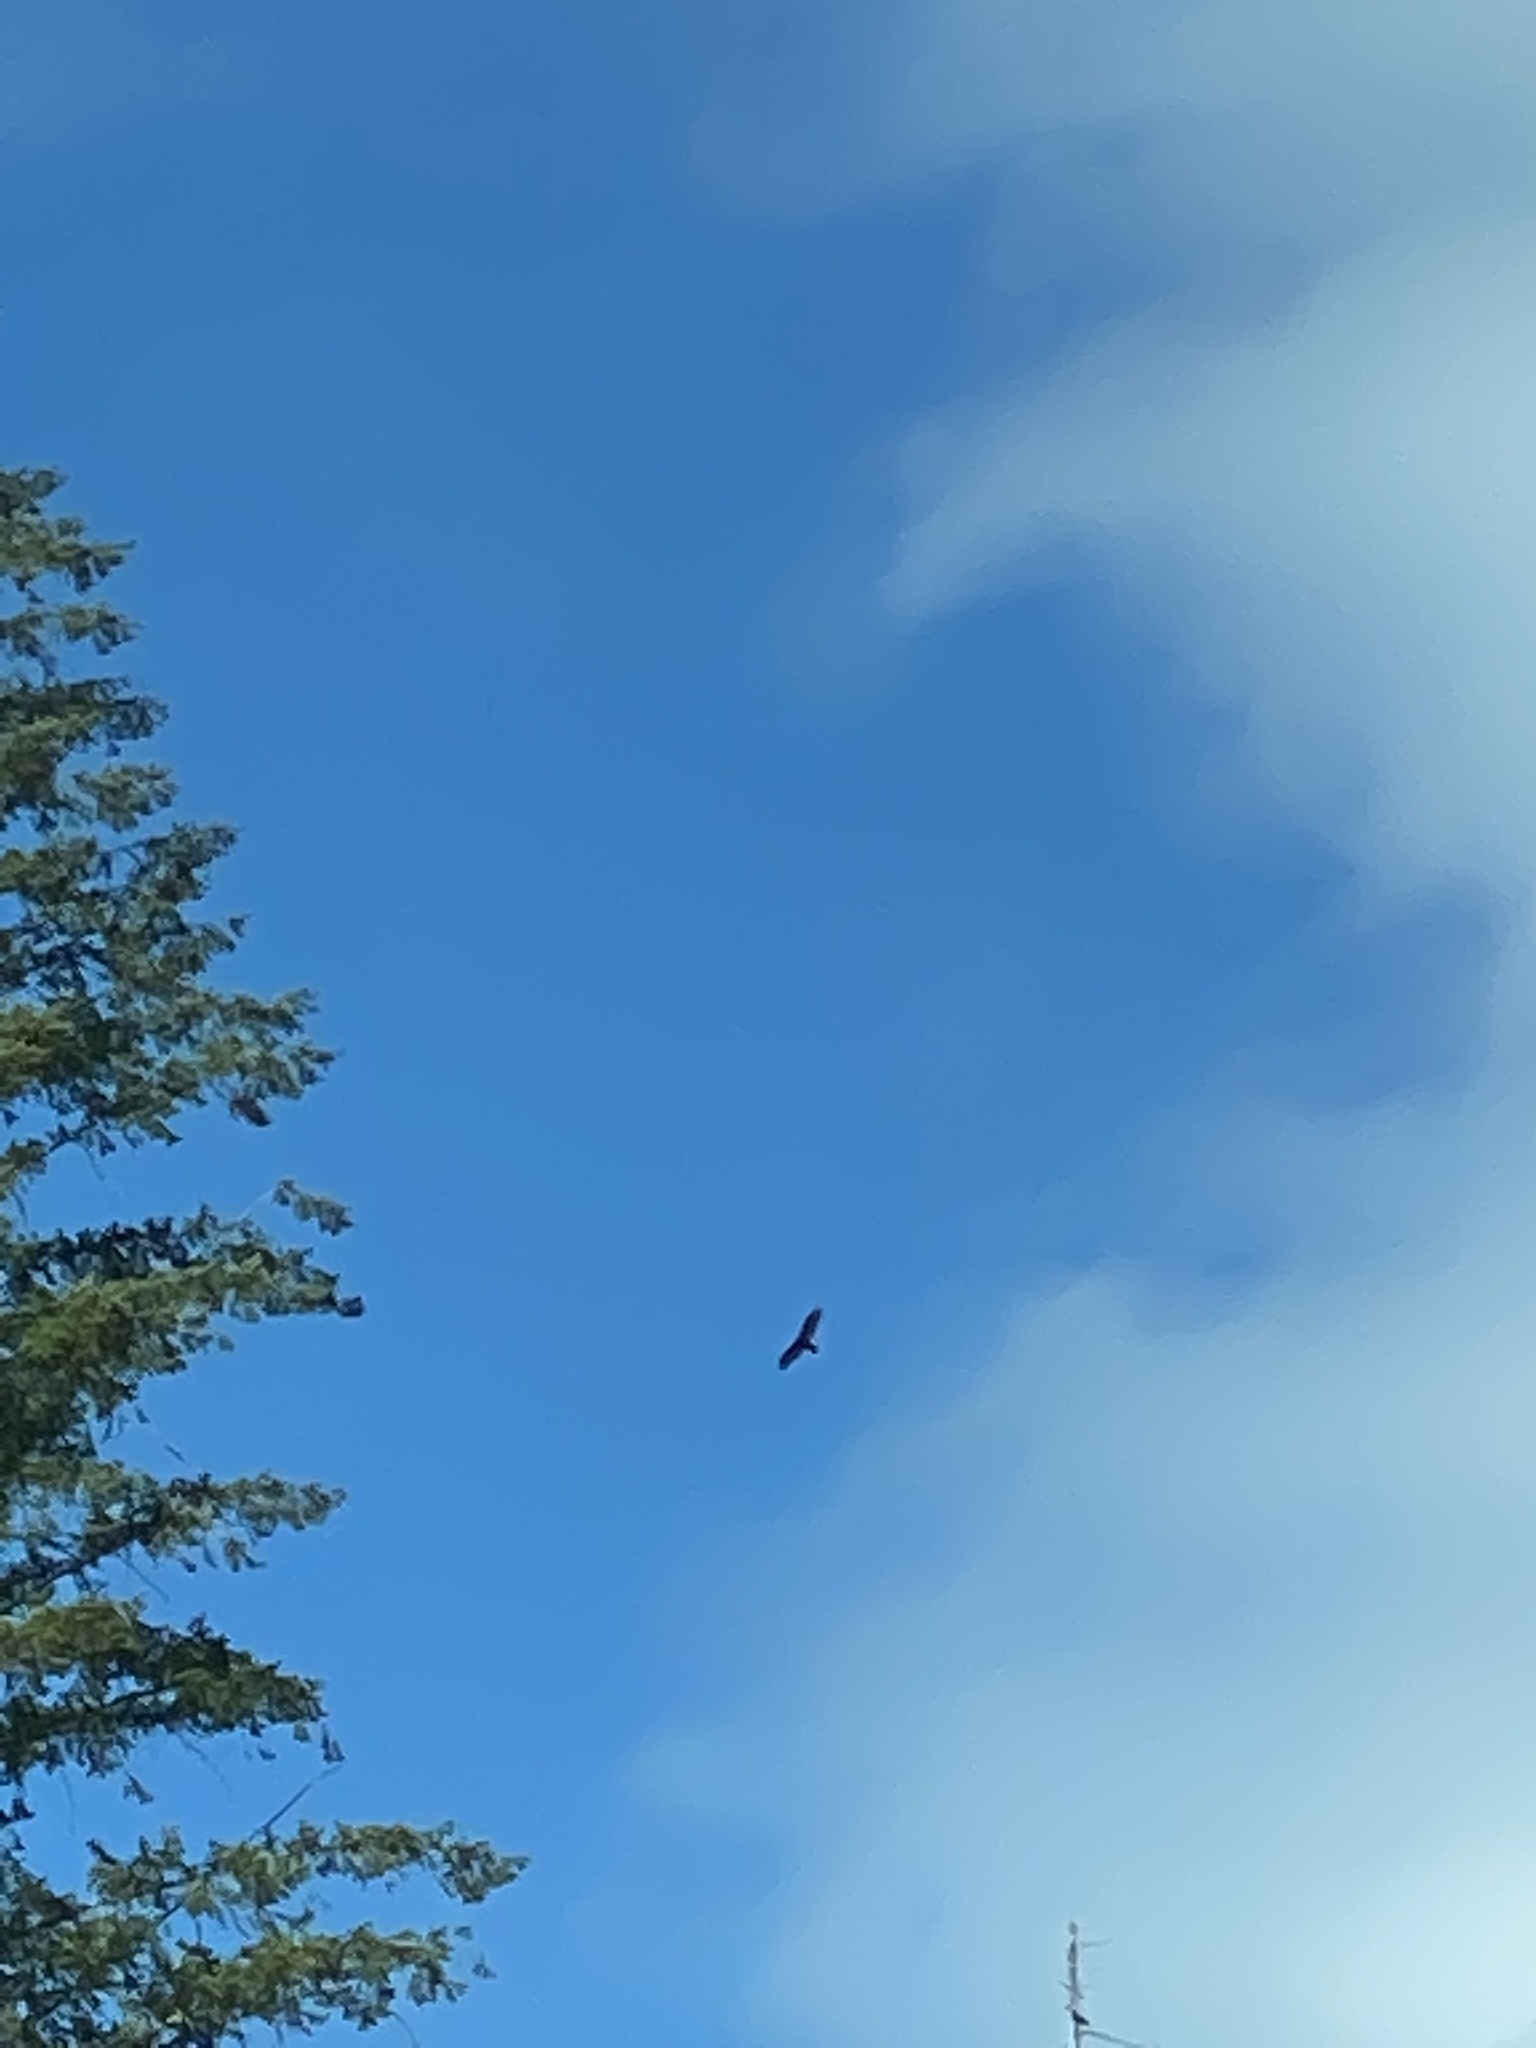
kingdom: Animalia
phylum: Chordata
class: Aves
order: Accipitriformes
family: Cathartidae
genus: Cathartes
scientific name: Cathartes aura
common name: Turkey vulture
